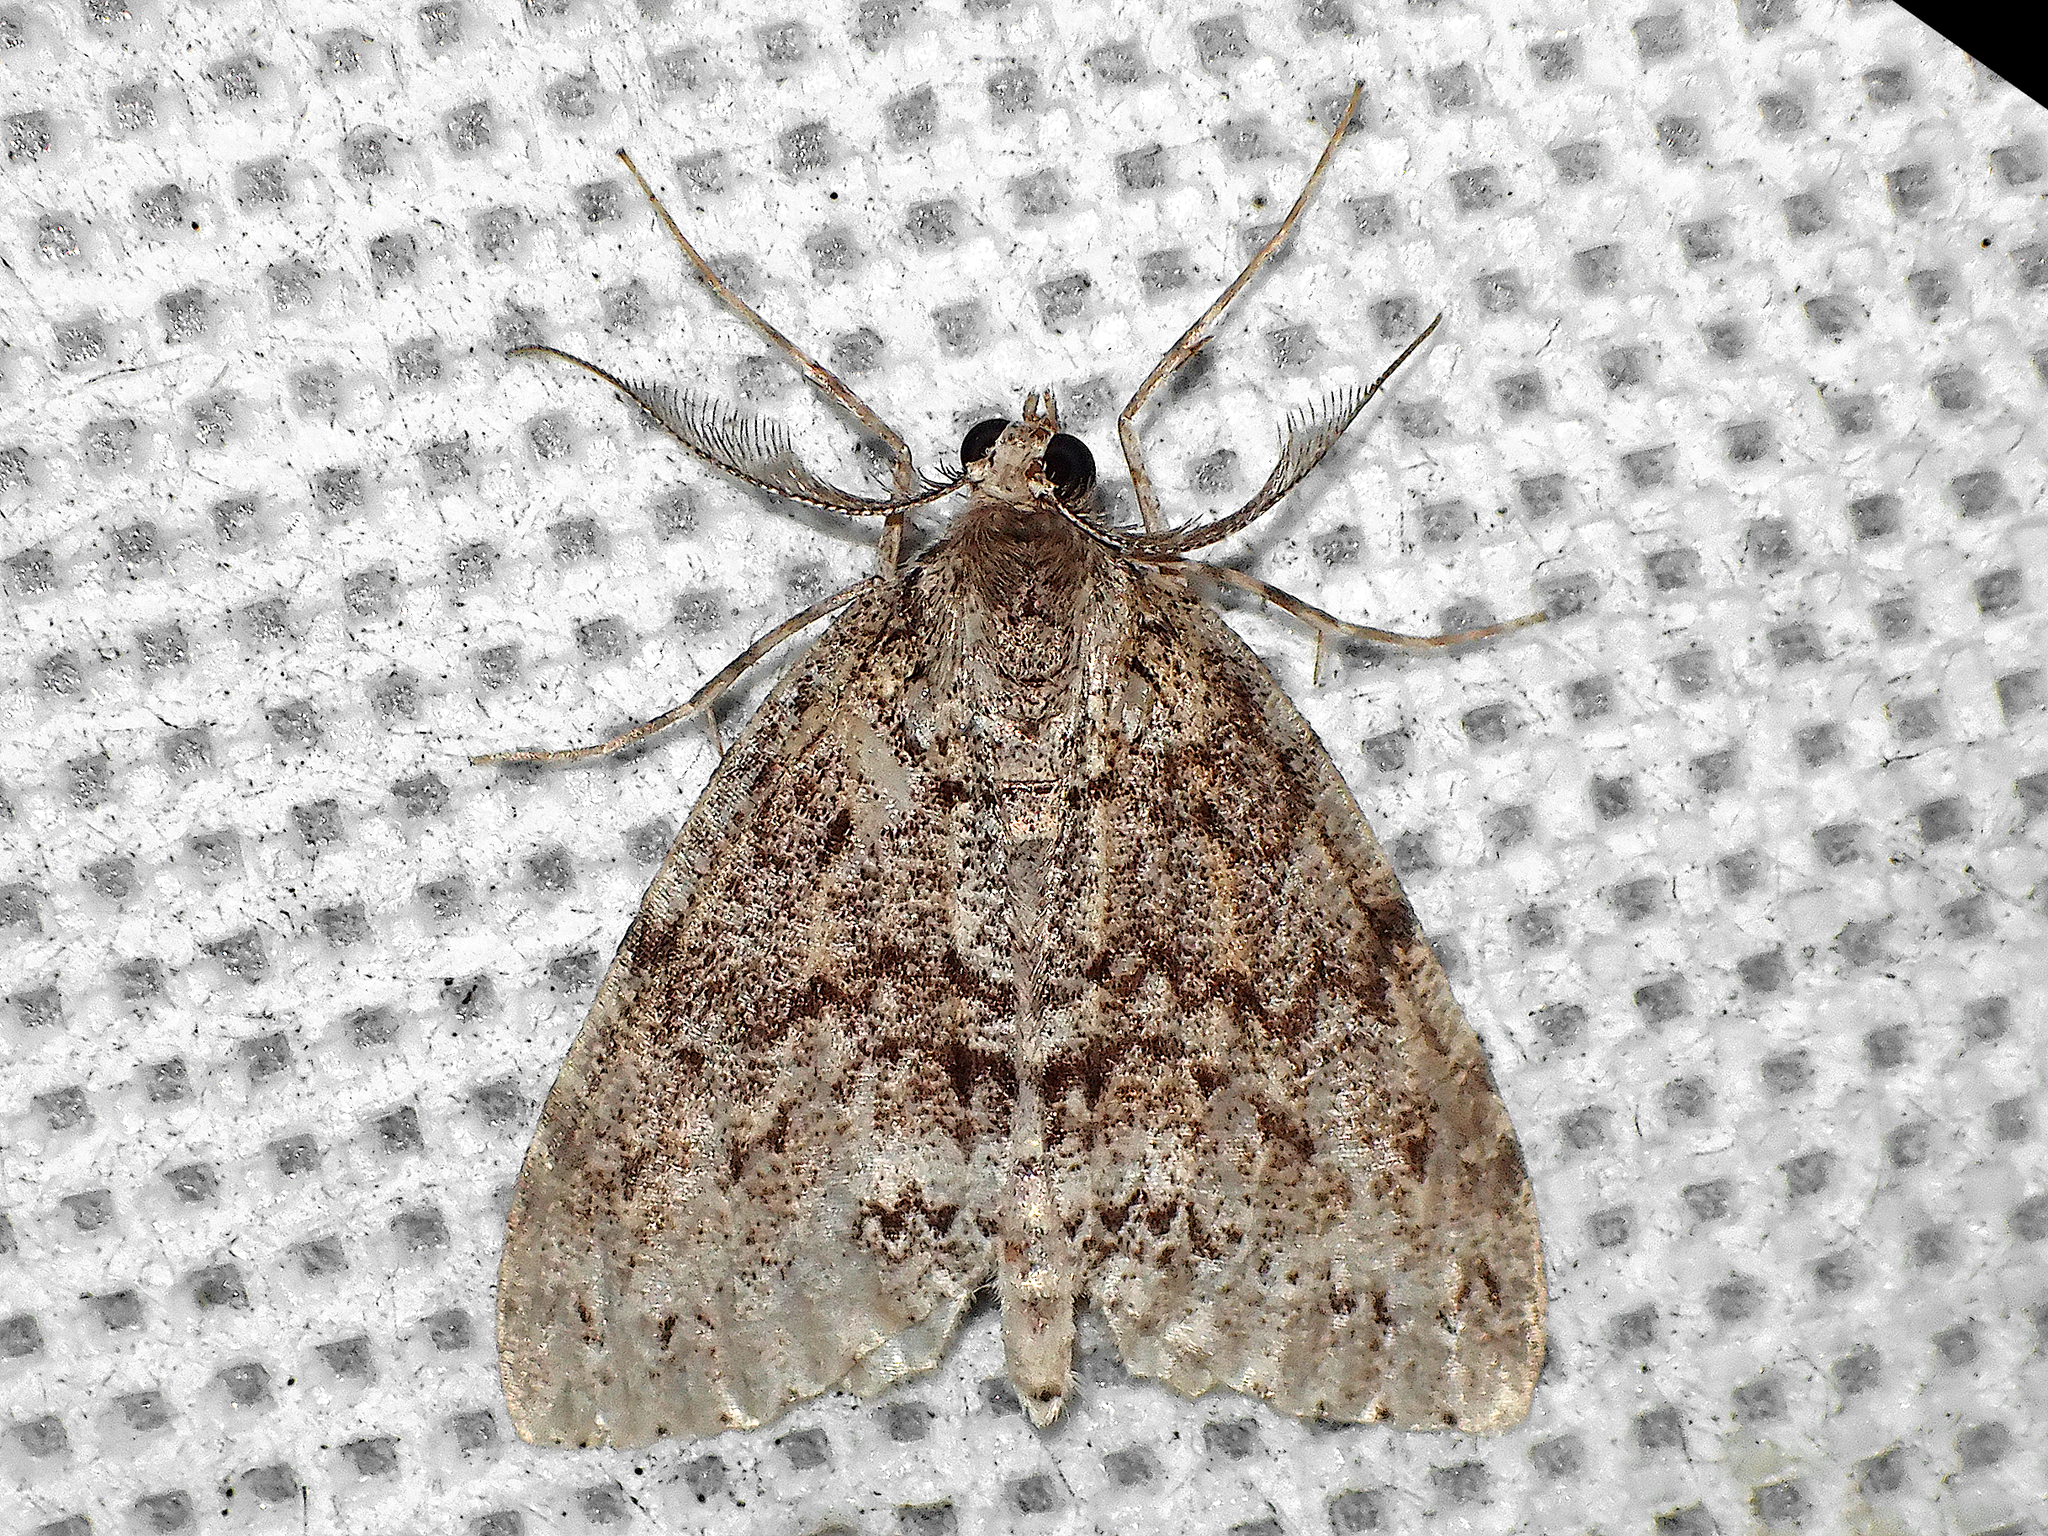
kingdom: Animalia
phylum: Arthropoda
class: Insecta
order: Lepidoptera
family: Geometridae
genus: Pseudocoremia
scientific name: Pseudocoremia fenerata
